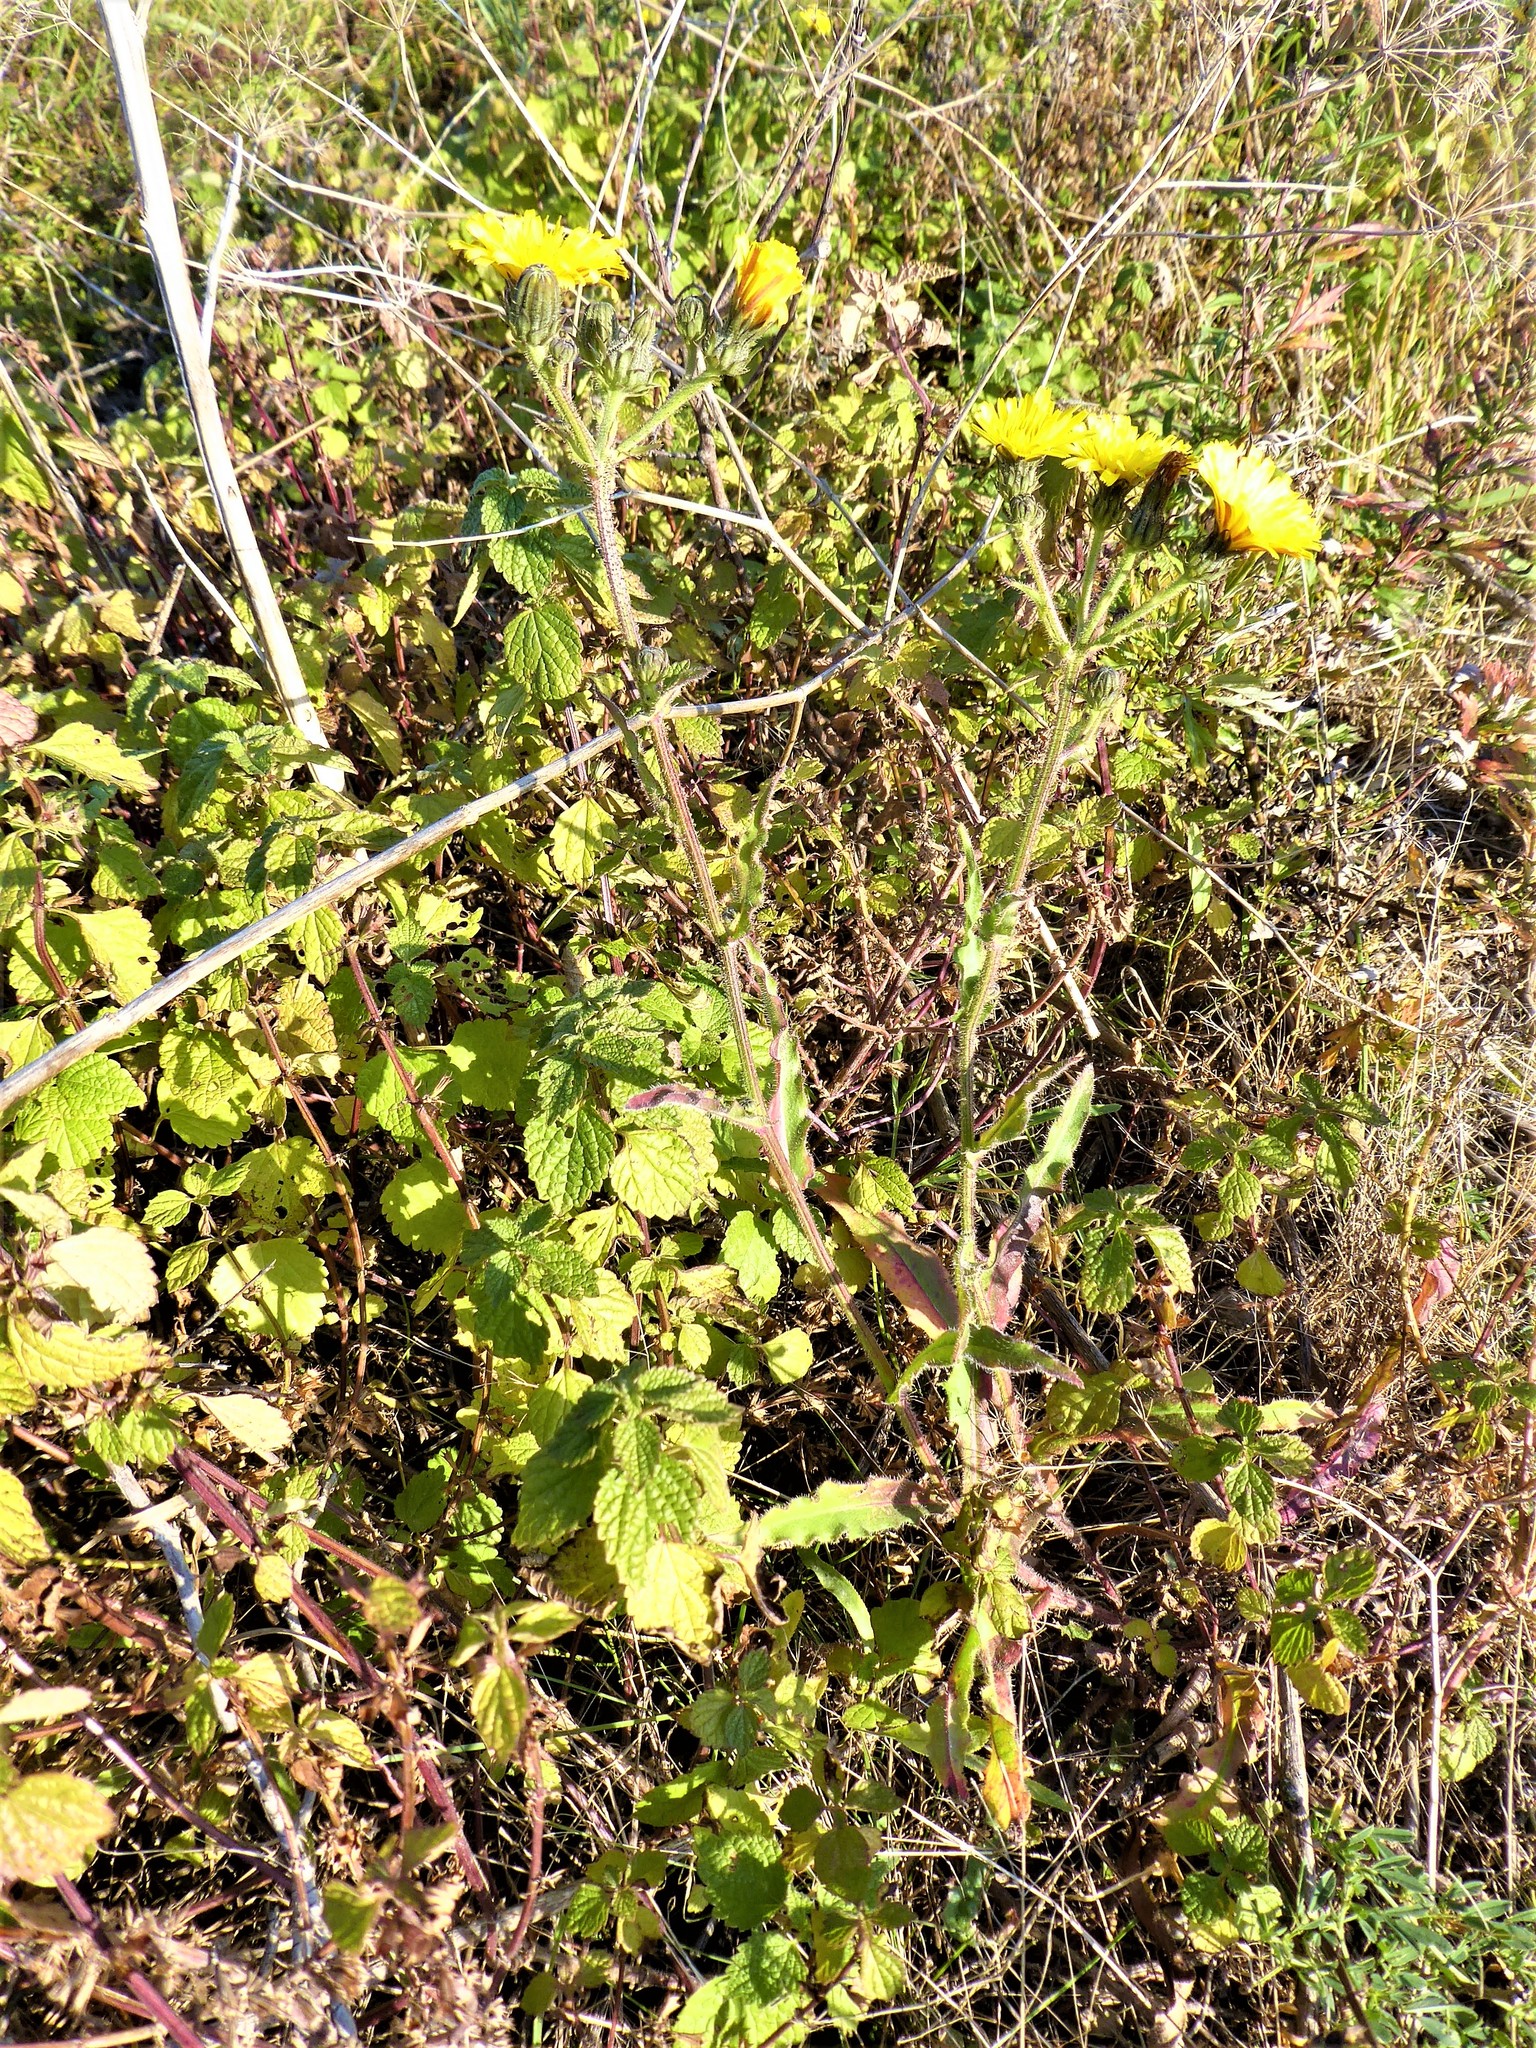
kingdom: Plantae
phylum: Tracheophyta
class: Magnoliopsida
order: Asterales
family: Asteraceae
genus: Picris
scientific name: Picris hieracioides
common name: Hawkweed oxtongue
